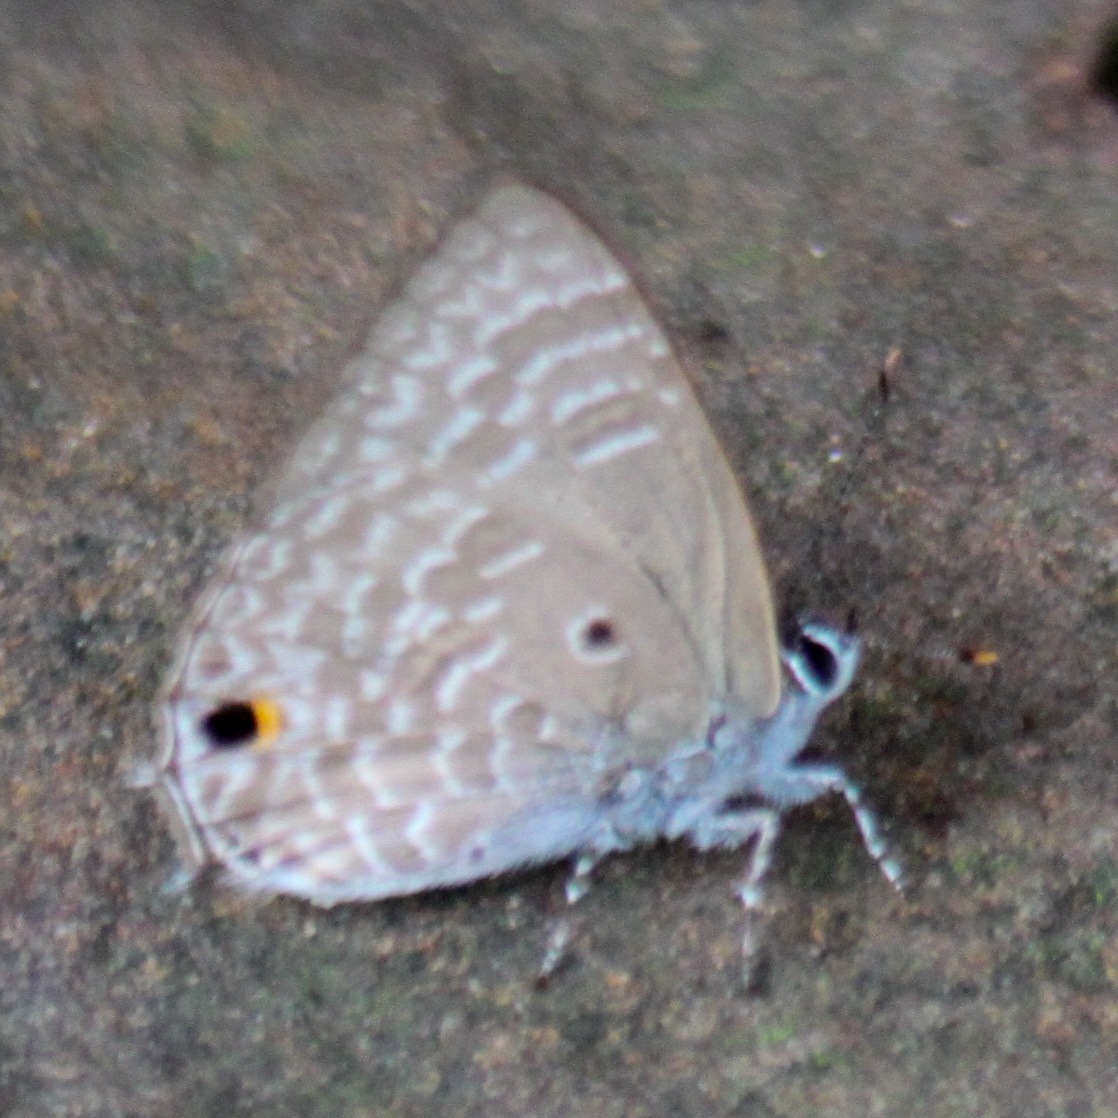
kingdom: Animalia
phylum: Arthropoda
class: Insecta
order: Lepidoptera
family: Lycaenidae
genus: Anthene
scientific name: Anthene lycaenina
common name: Pointed ciliate blue
